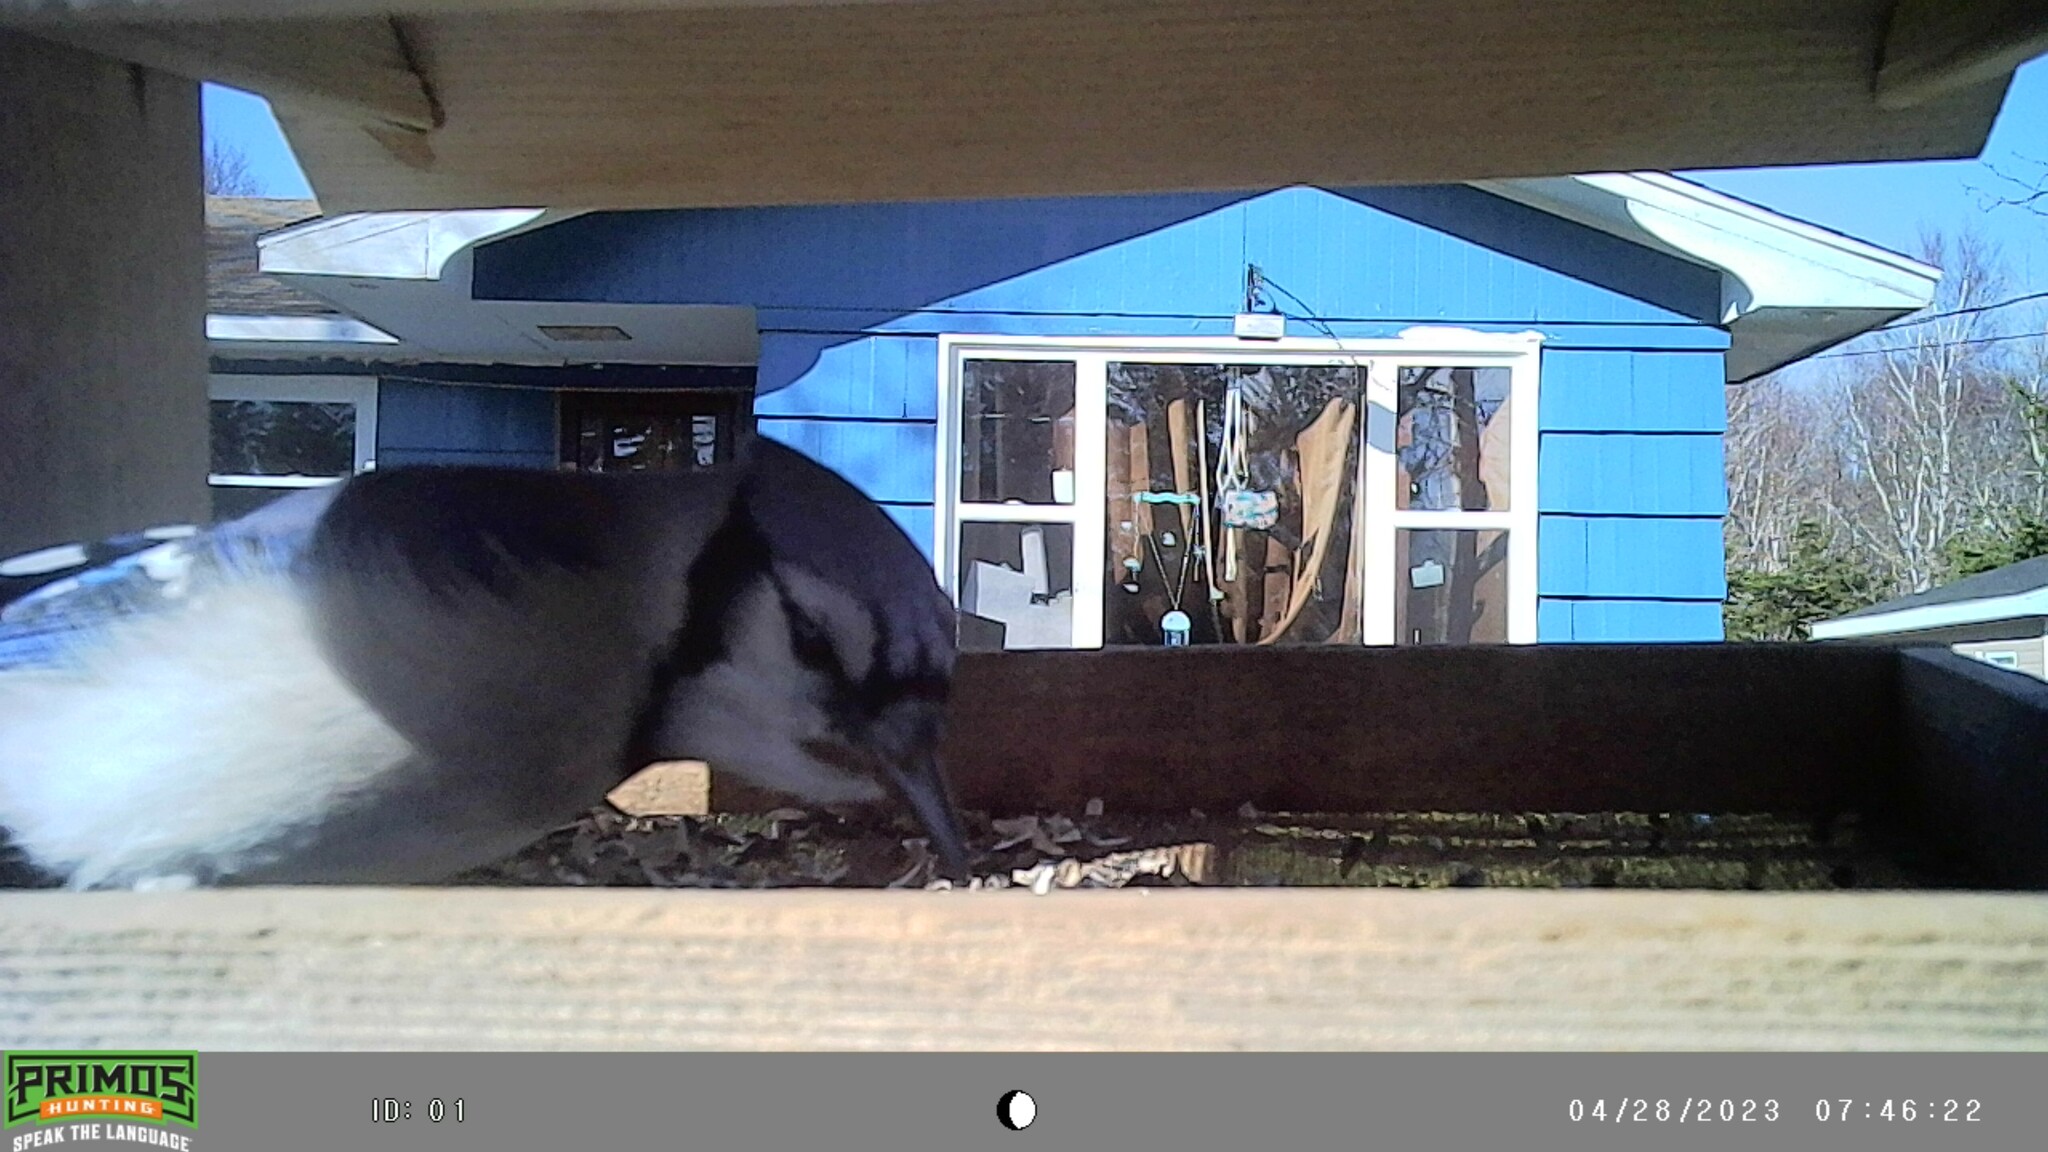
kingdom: Animalia
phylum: Chordata
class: Aves
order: Passeriformes
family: Corvidae
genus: Cyanocitta
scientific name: Cyanocitta cristata
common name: Blue jay
